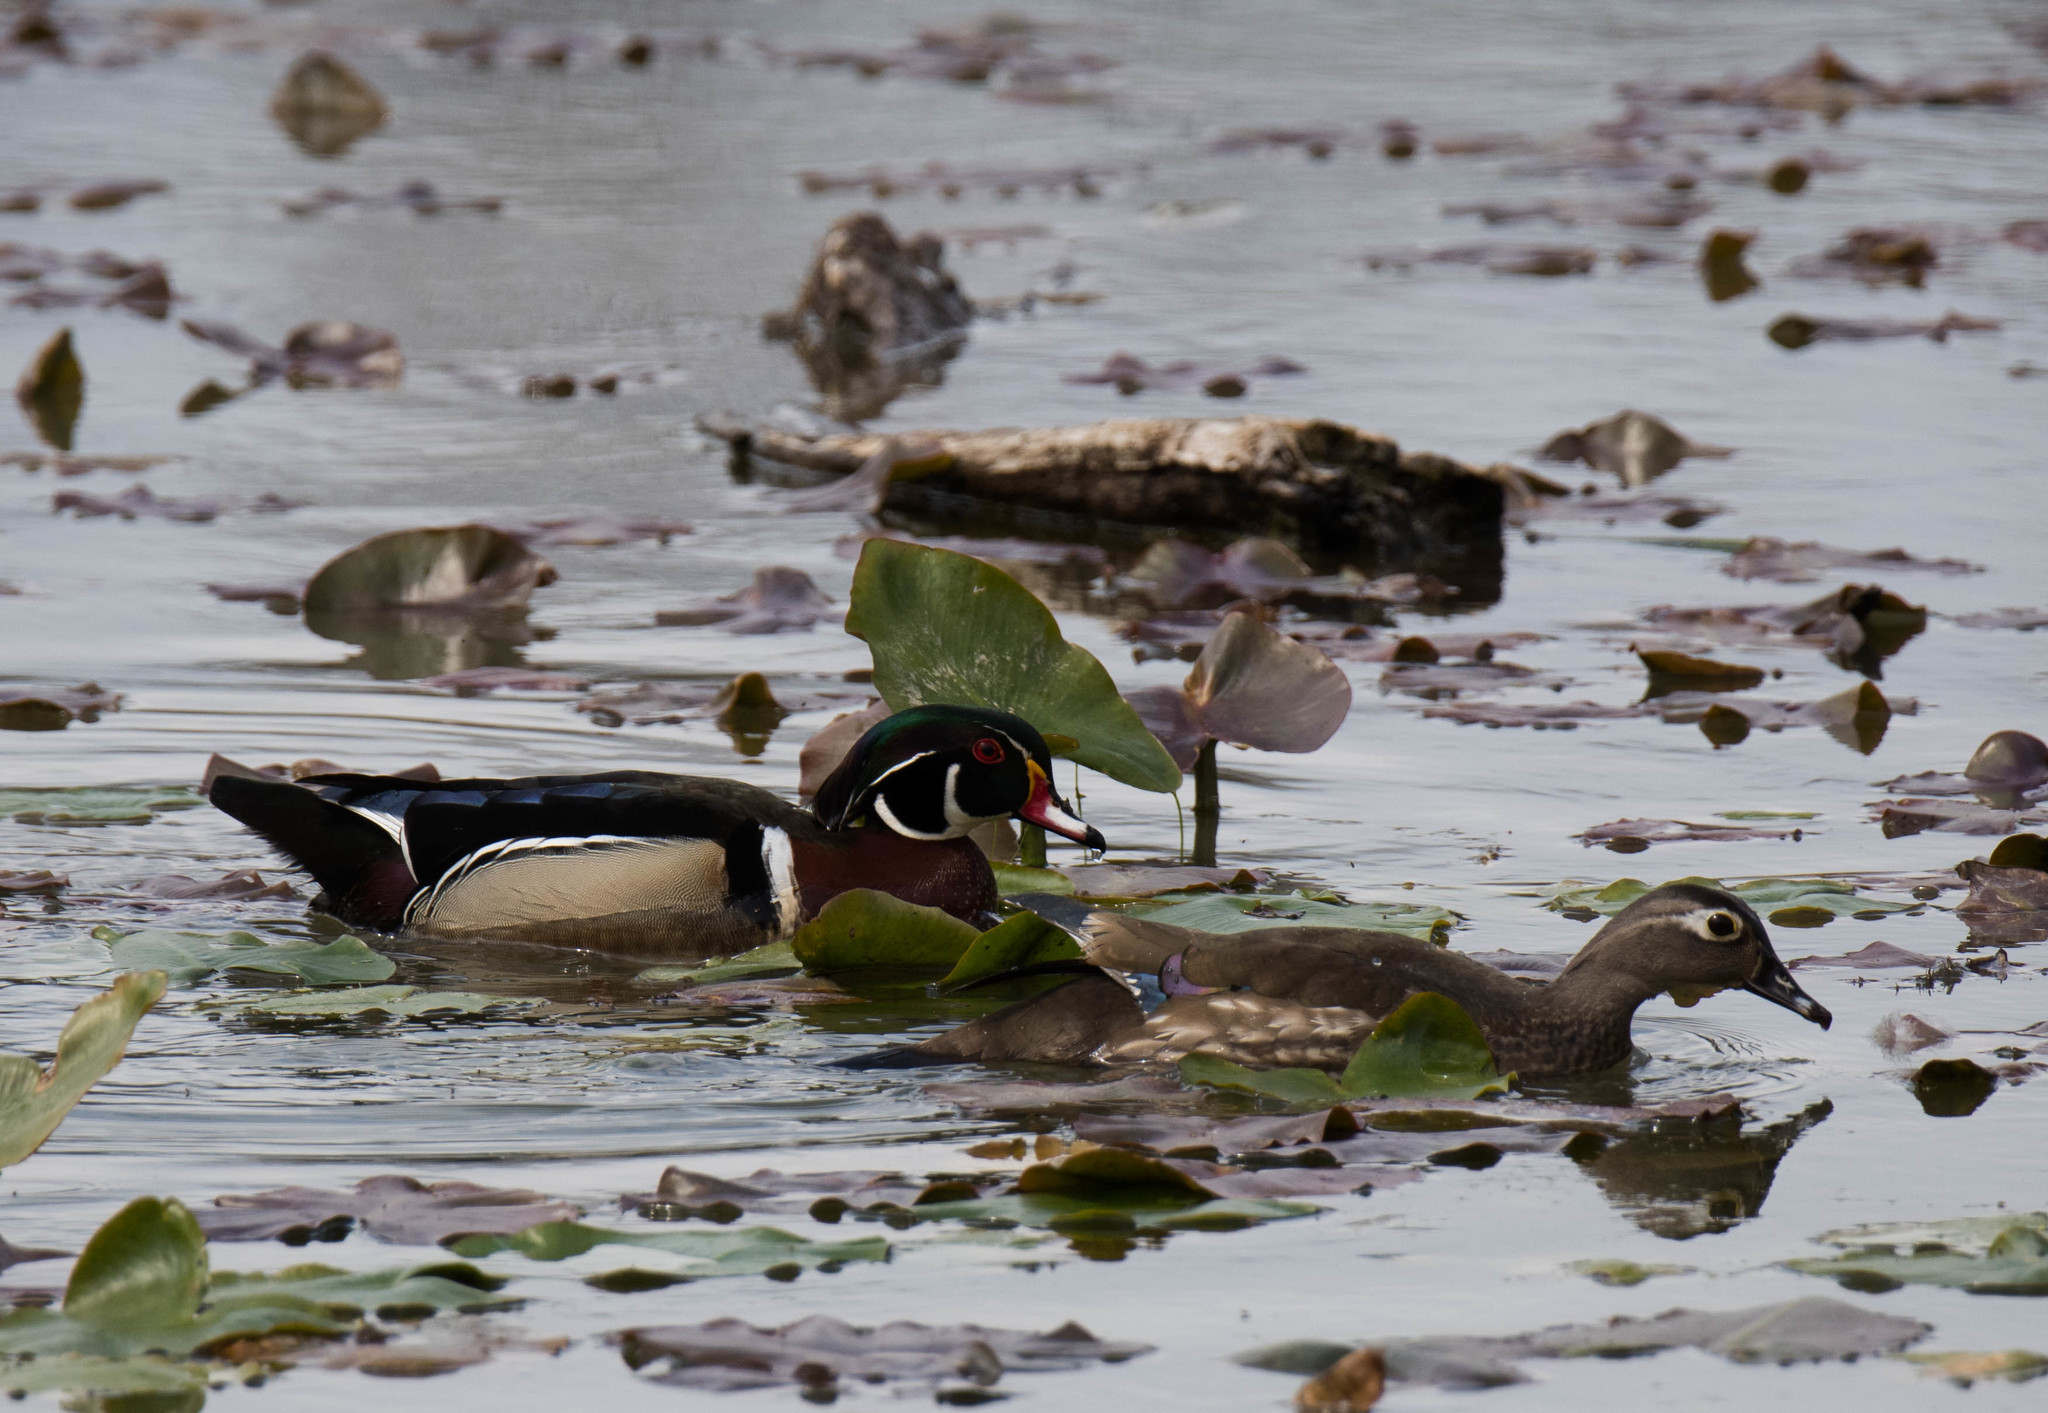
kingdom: Animalia
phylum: Chordata
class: Aves
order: Anseriformes
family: Anatidae
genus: Aix
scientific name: Aix sponsa
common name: Wood duck
